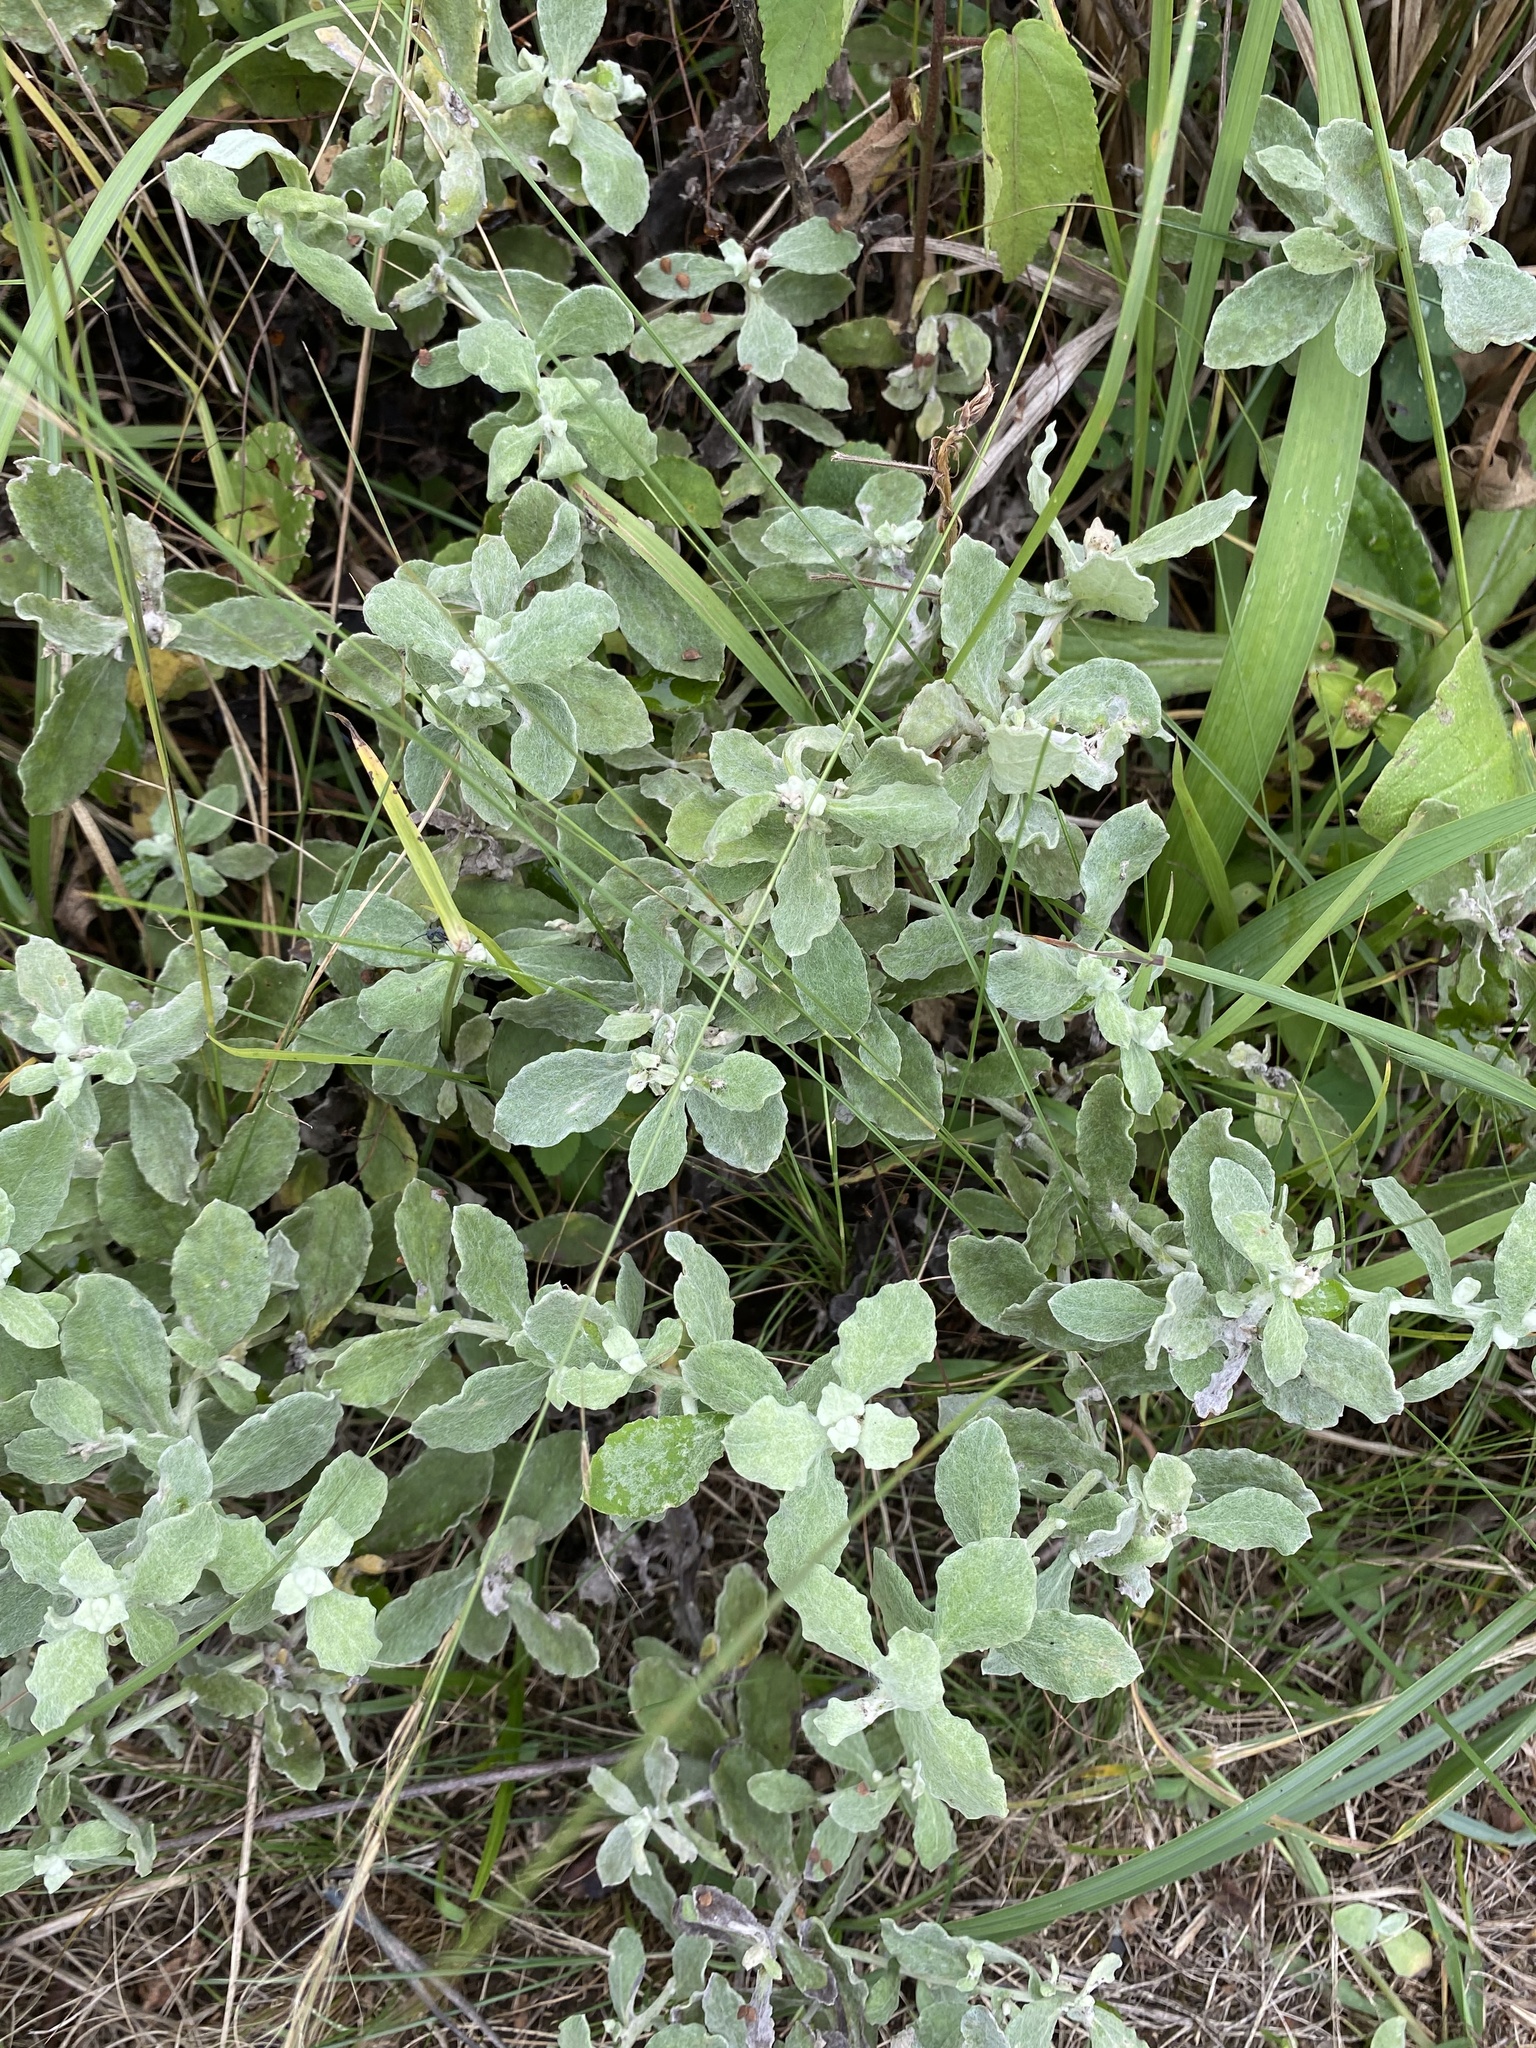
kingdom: Plantae
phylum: Tracheophyta
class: Magnoliopsida
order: Asterales
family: Asteraceae
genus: Helichrysum
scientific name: Helichrysum panduratum
